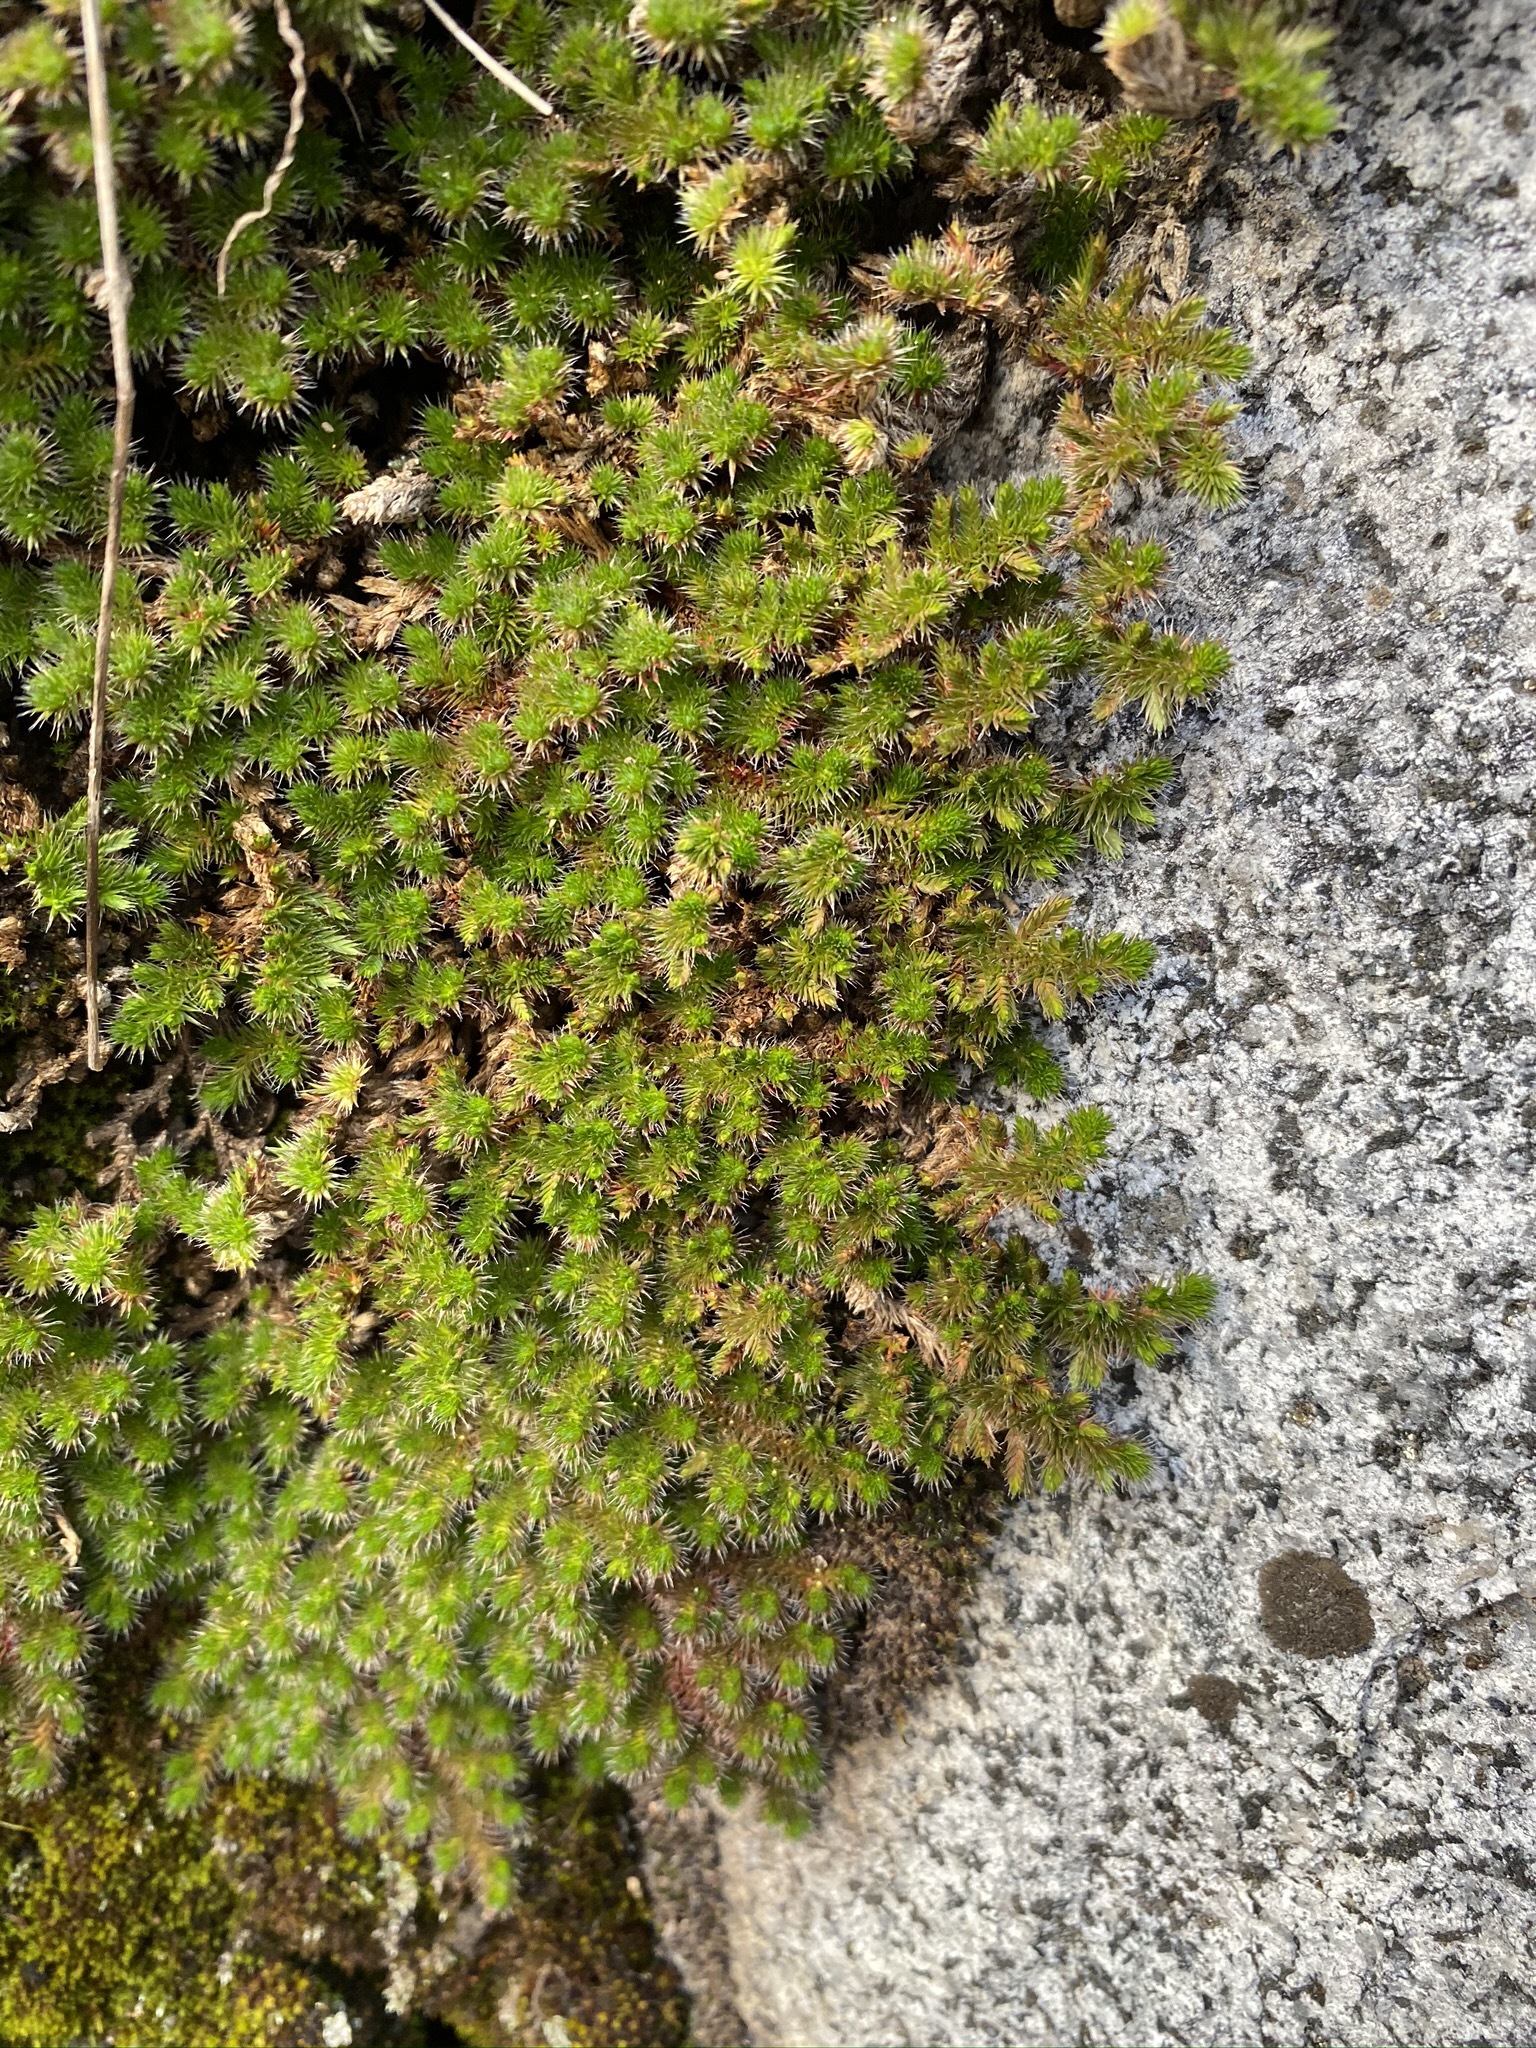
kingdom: Plantae
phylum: Tracheophyta
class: Lycopodiopsida
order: Selaginellales
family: Selaginellaceae
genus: Selaginella
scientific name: Selaginella hansenii
